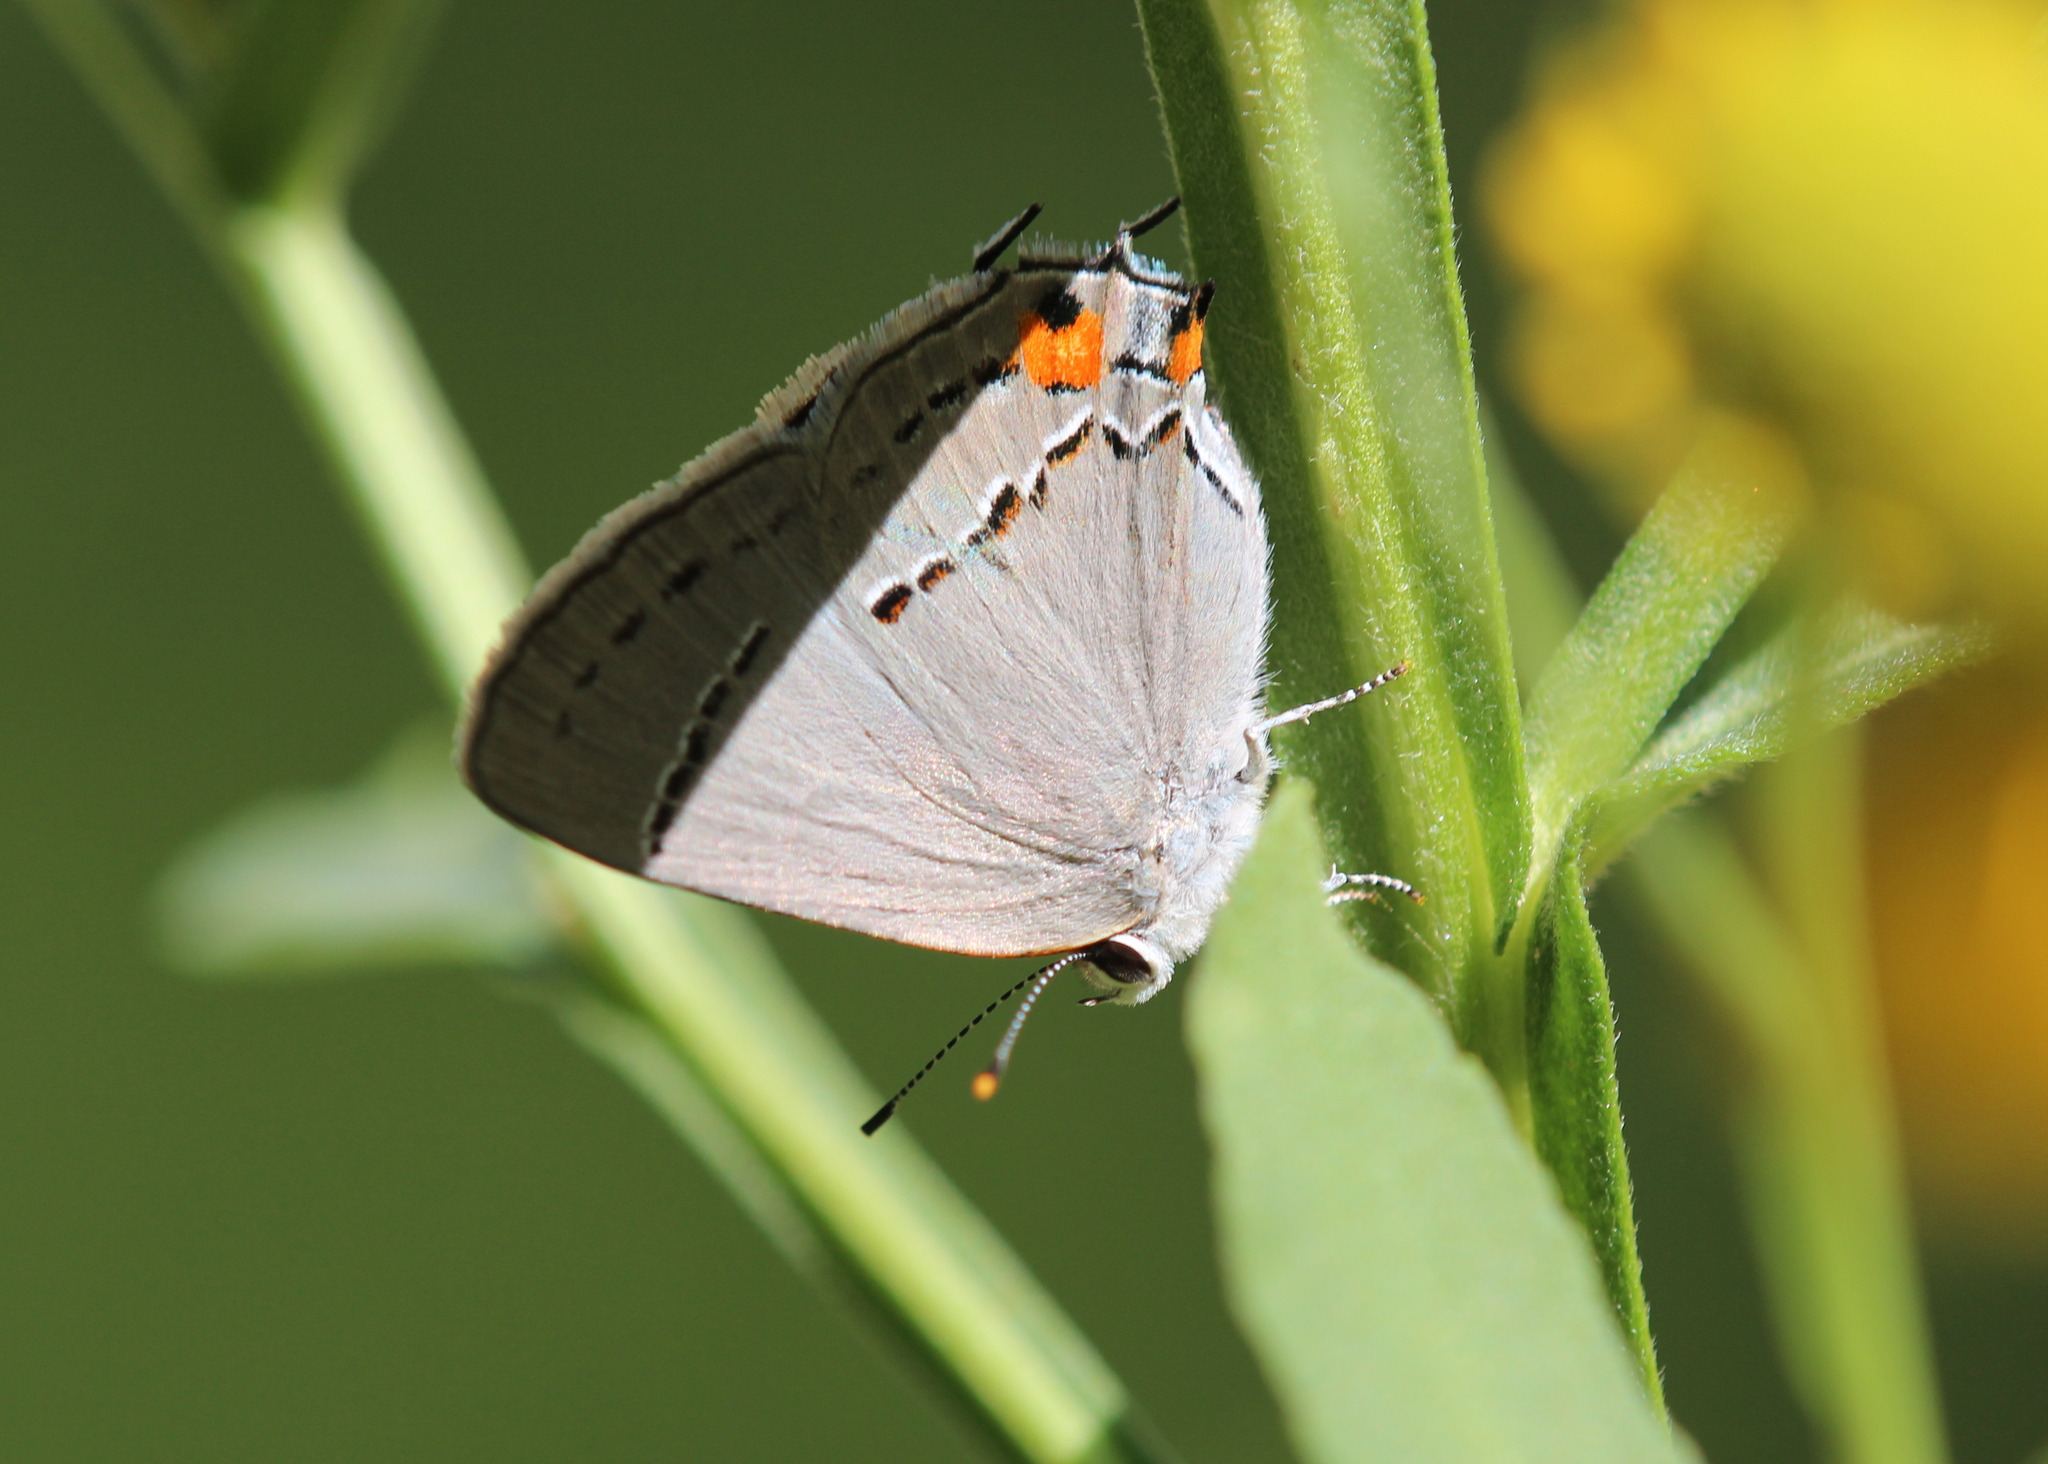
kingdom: Animalia
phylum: Arthropoda
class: Insecta
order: Lepidoptera
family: Lycaenidae
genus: Strymon
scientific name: Strymon melinus
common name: Gray hairstreak
